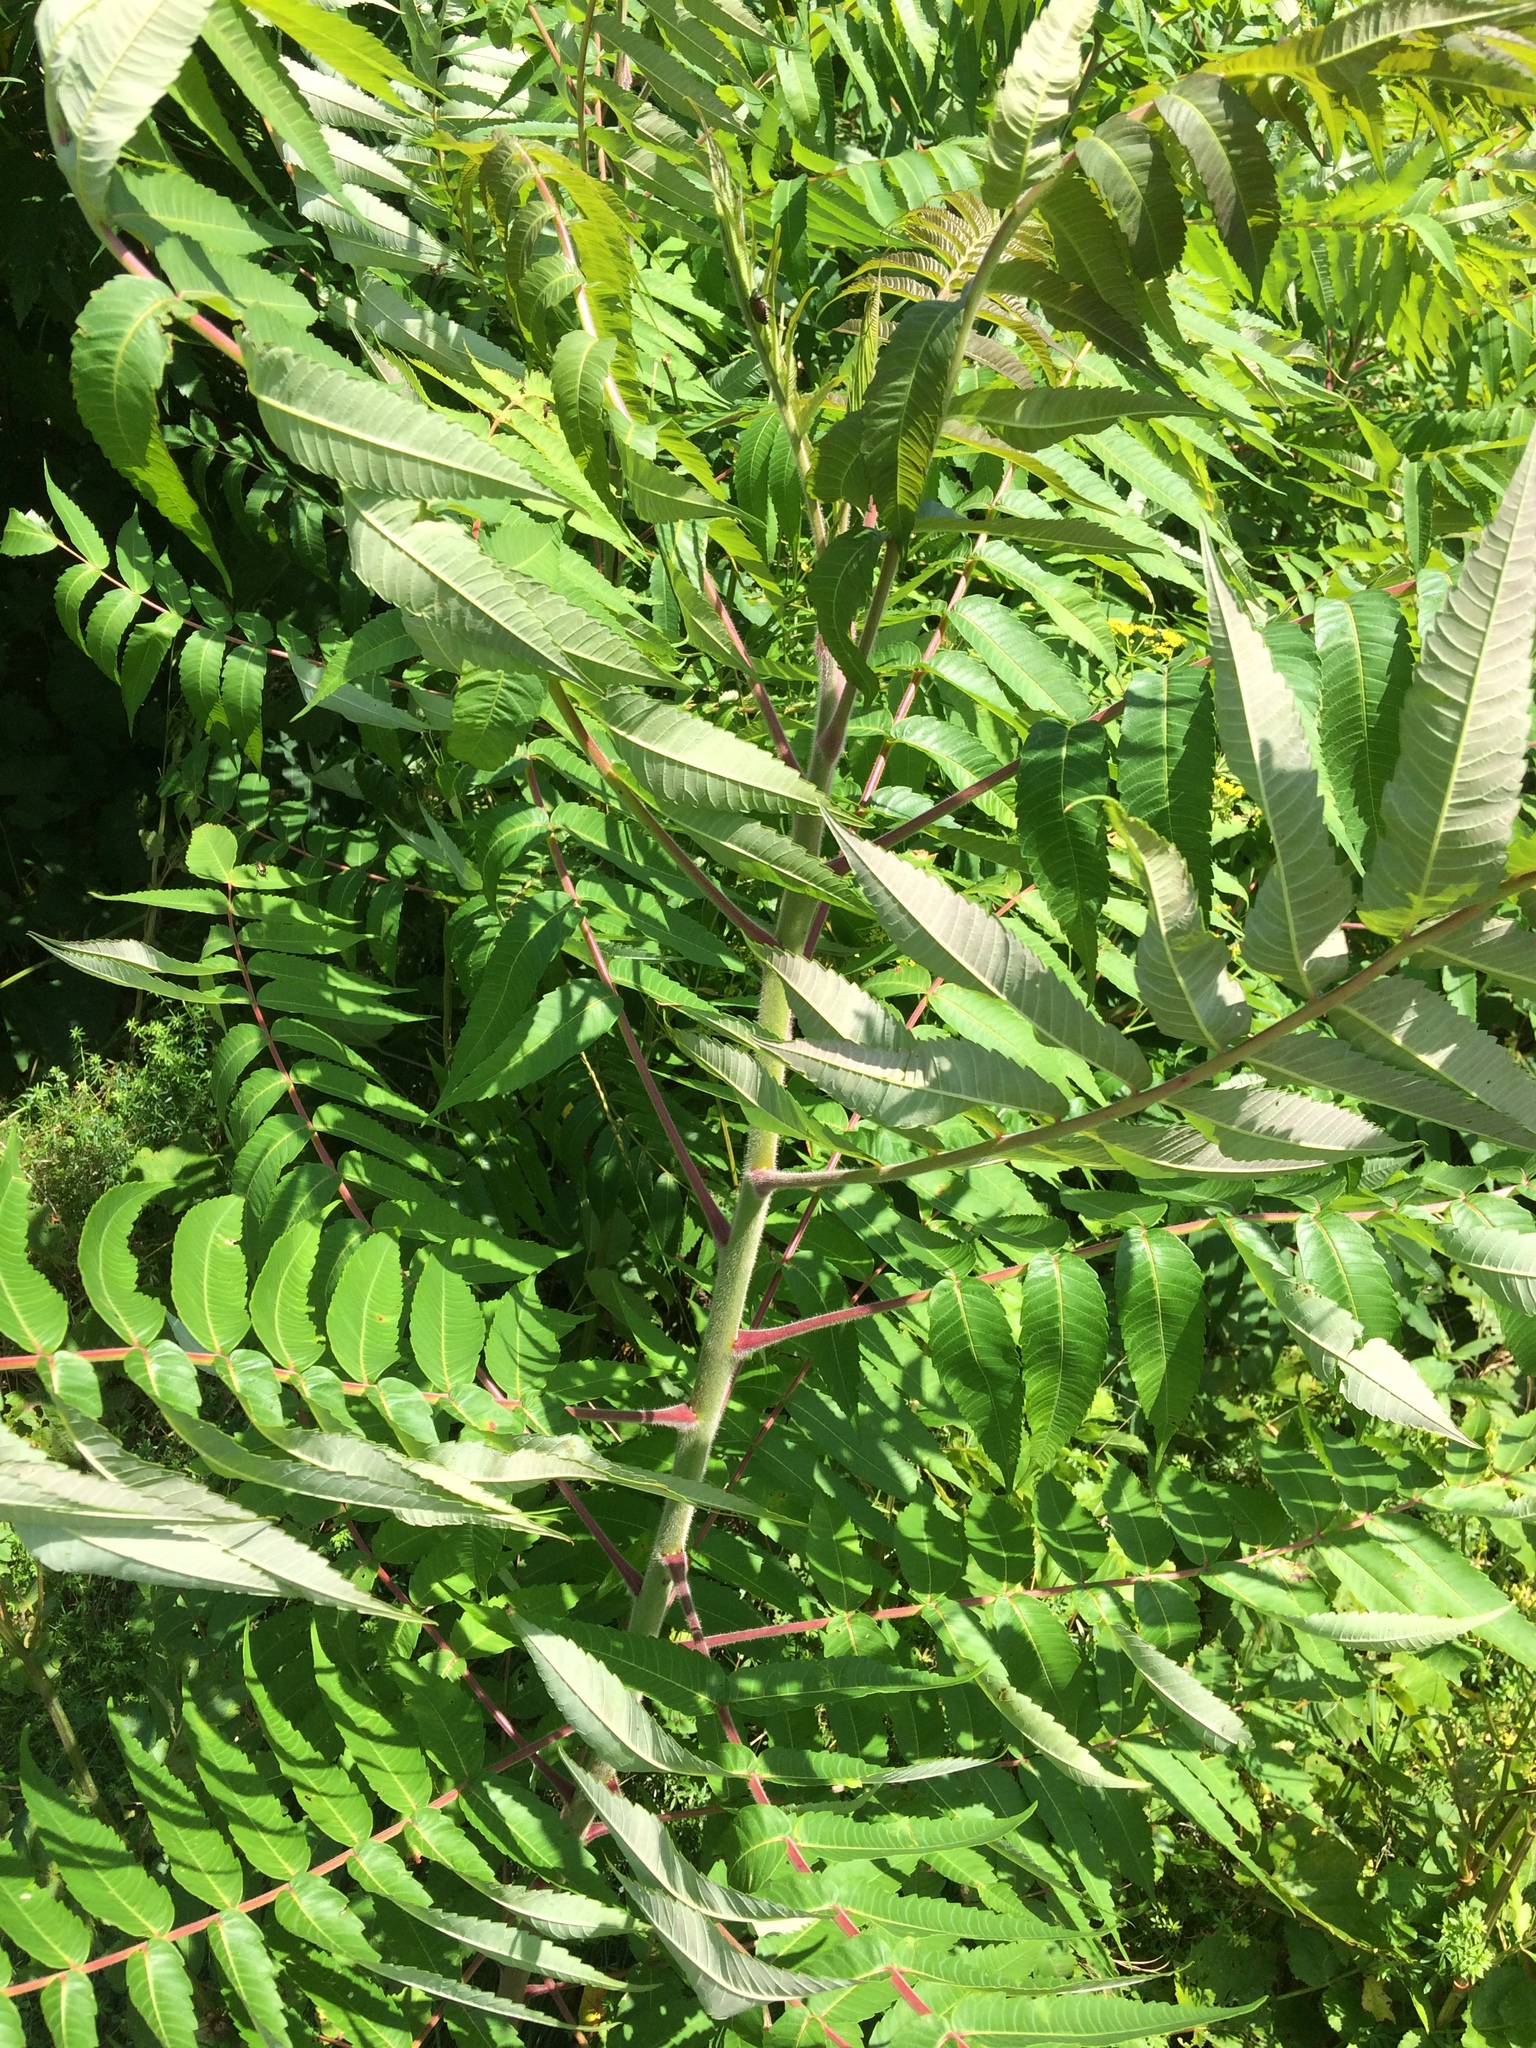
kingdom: Plantae
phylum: Tracheophyta
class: Magnoliopsida
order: Sapindales
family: Anacardiaceae
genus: Rhus
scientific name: Rhus typhina
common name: Staghorn sumac
